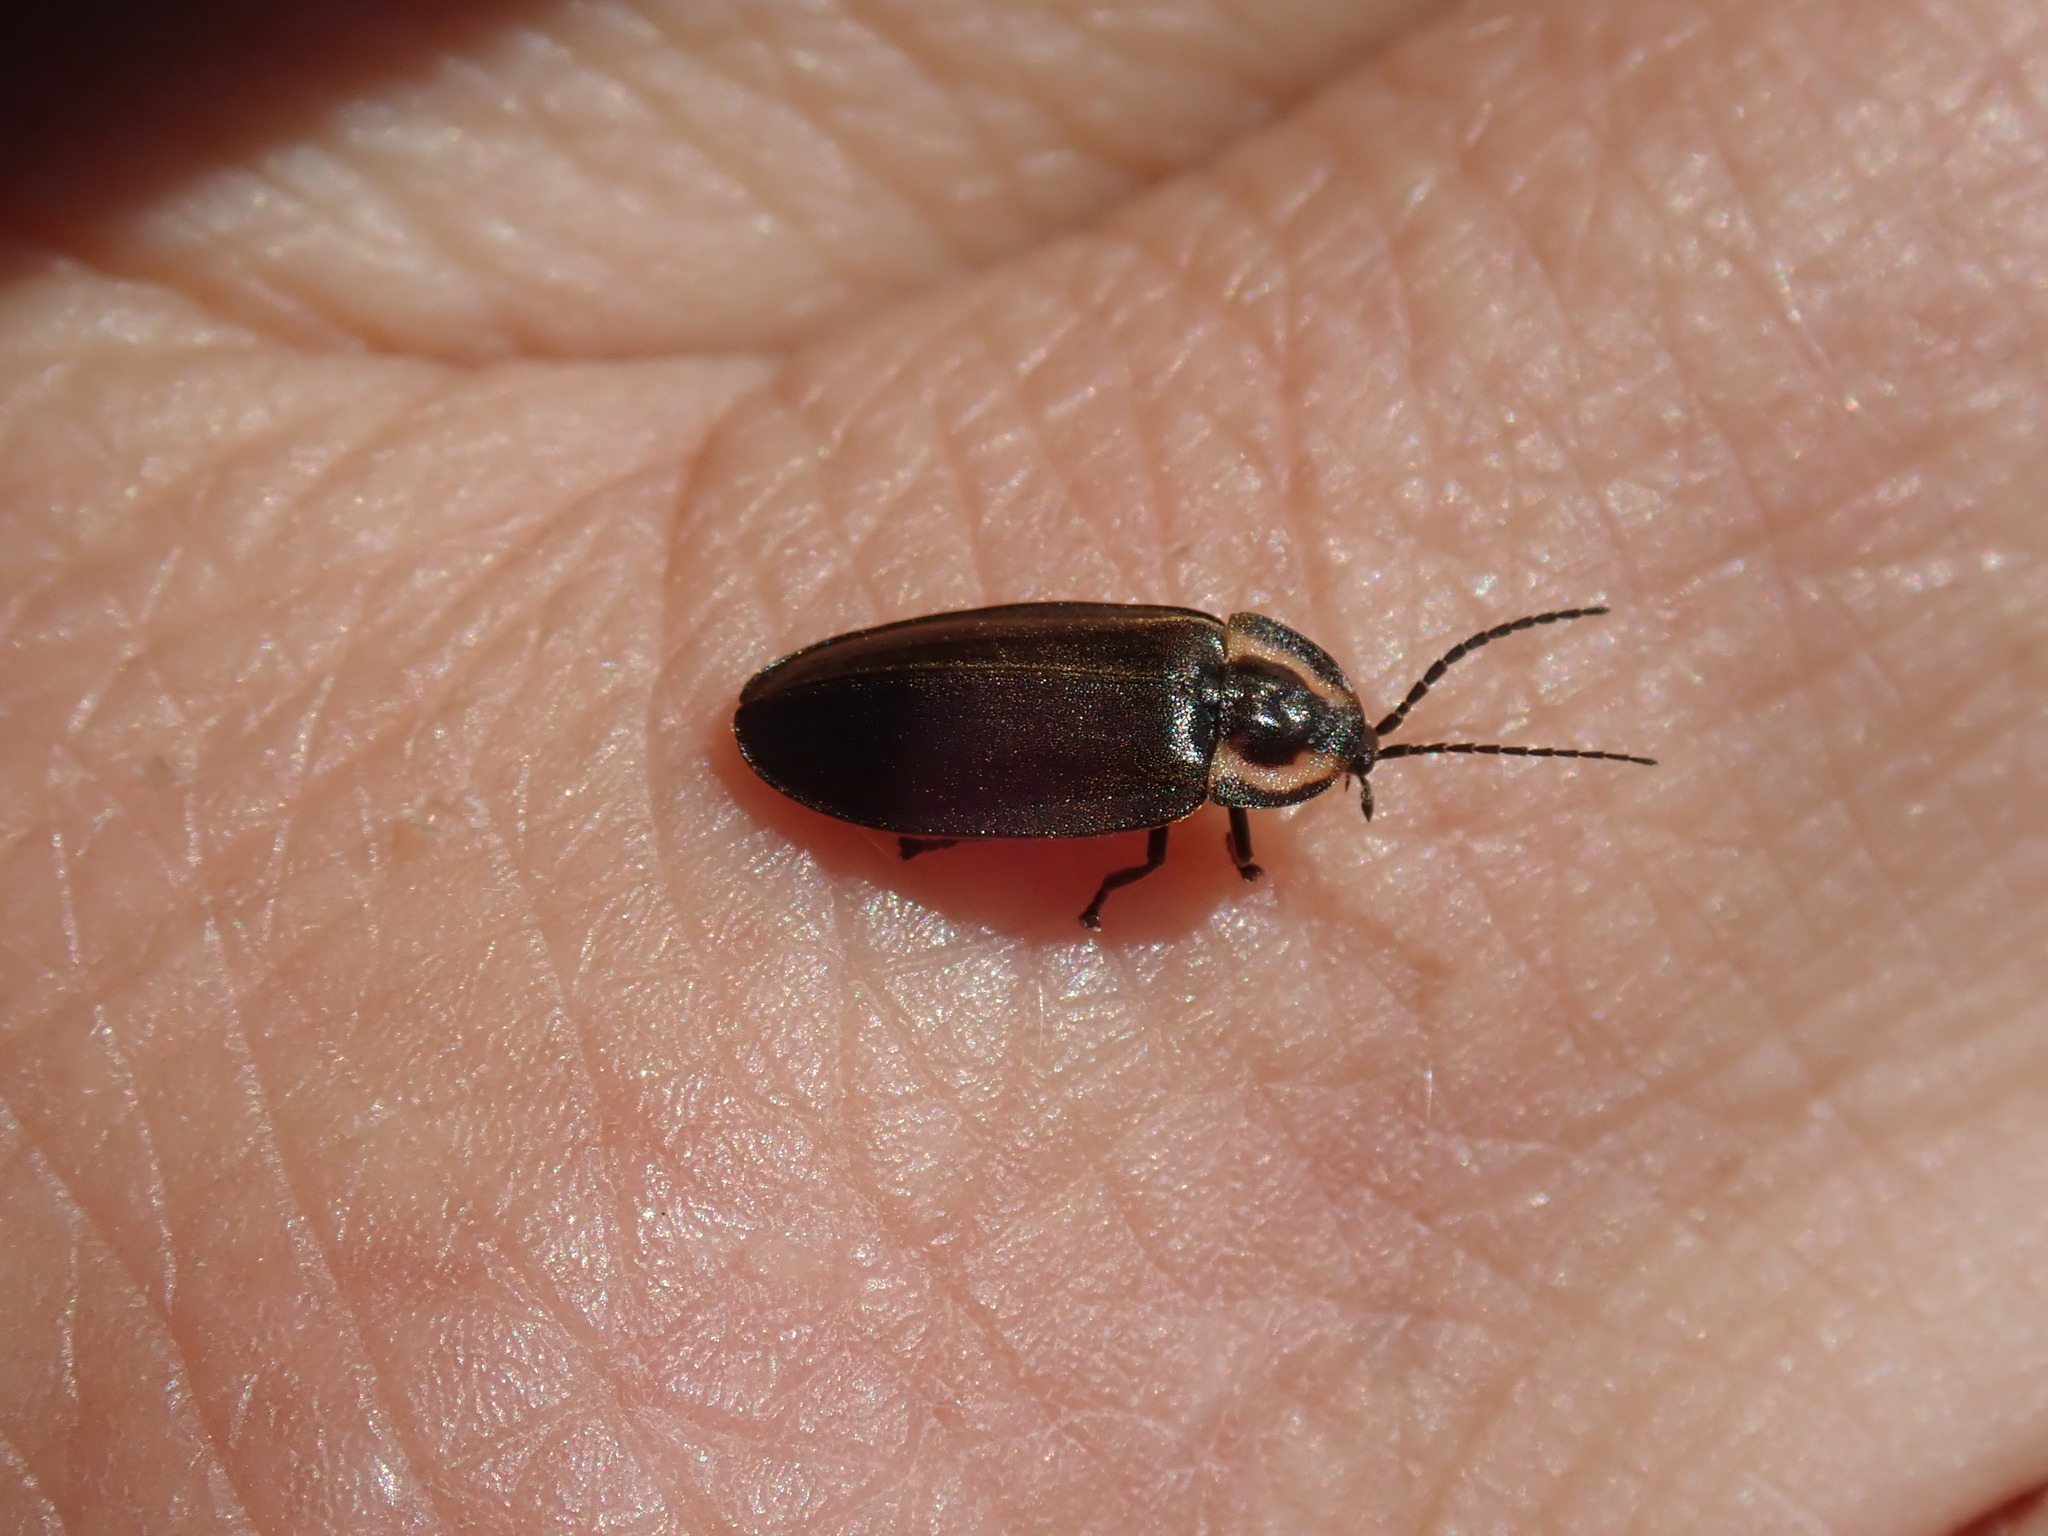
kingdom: Animalia
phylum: Arthropoda
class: Insecta
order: Coleoptera
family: Lampyridae
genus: Photinus
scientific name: Photinus corrusca
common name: Winter firefly
